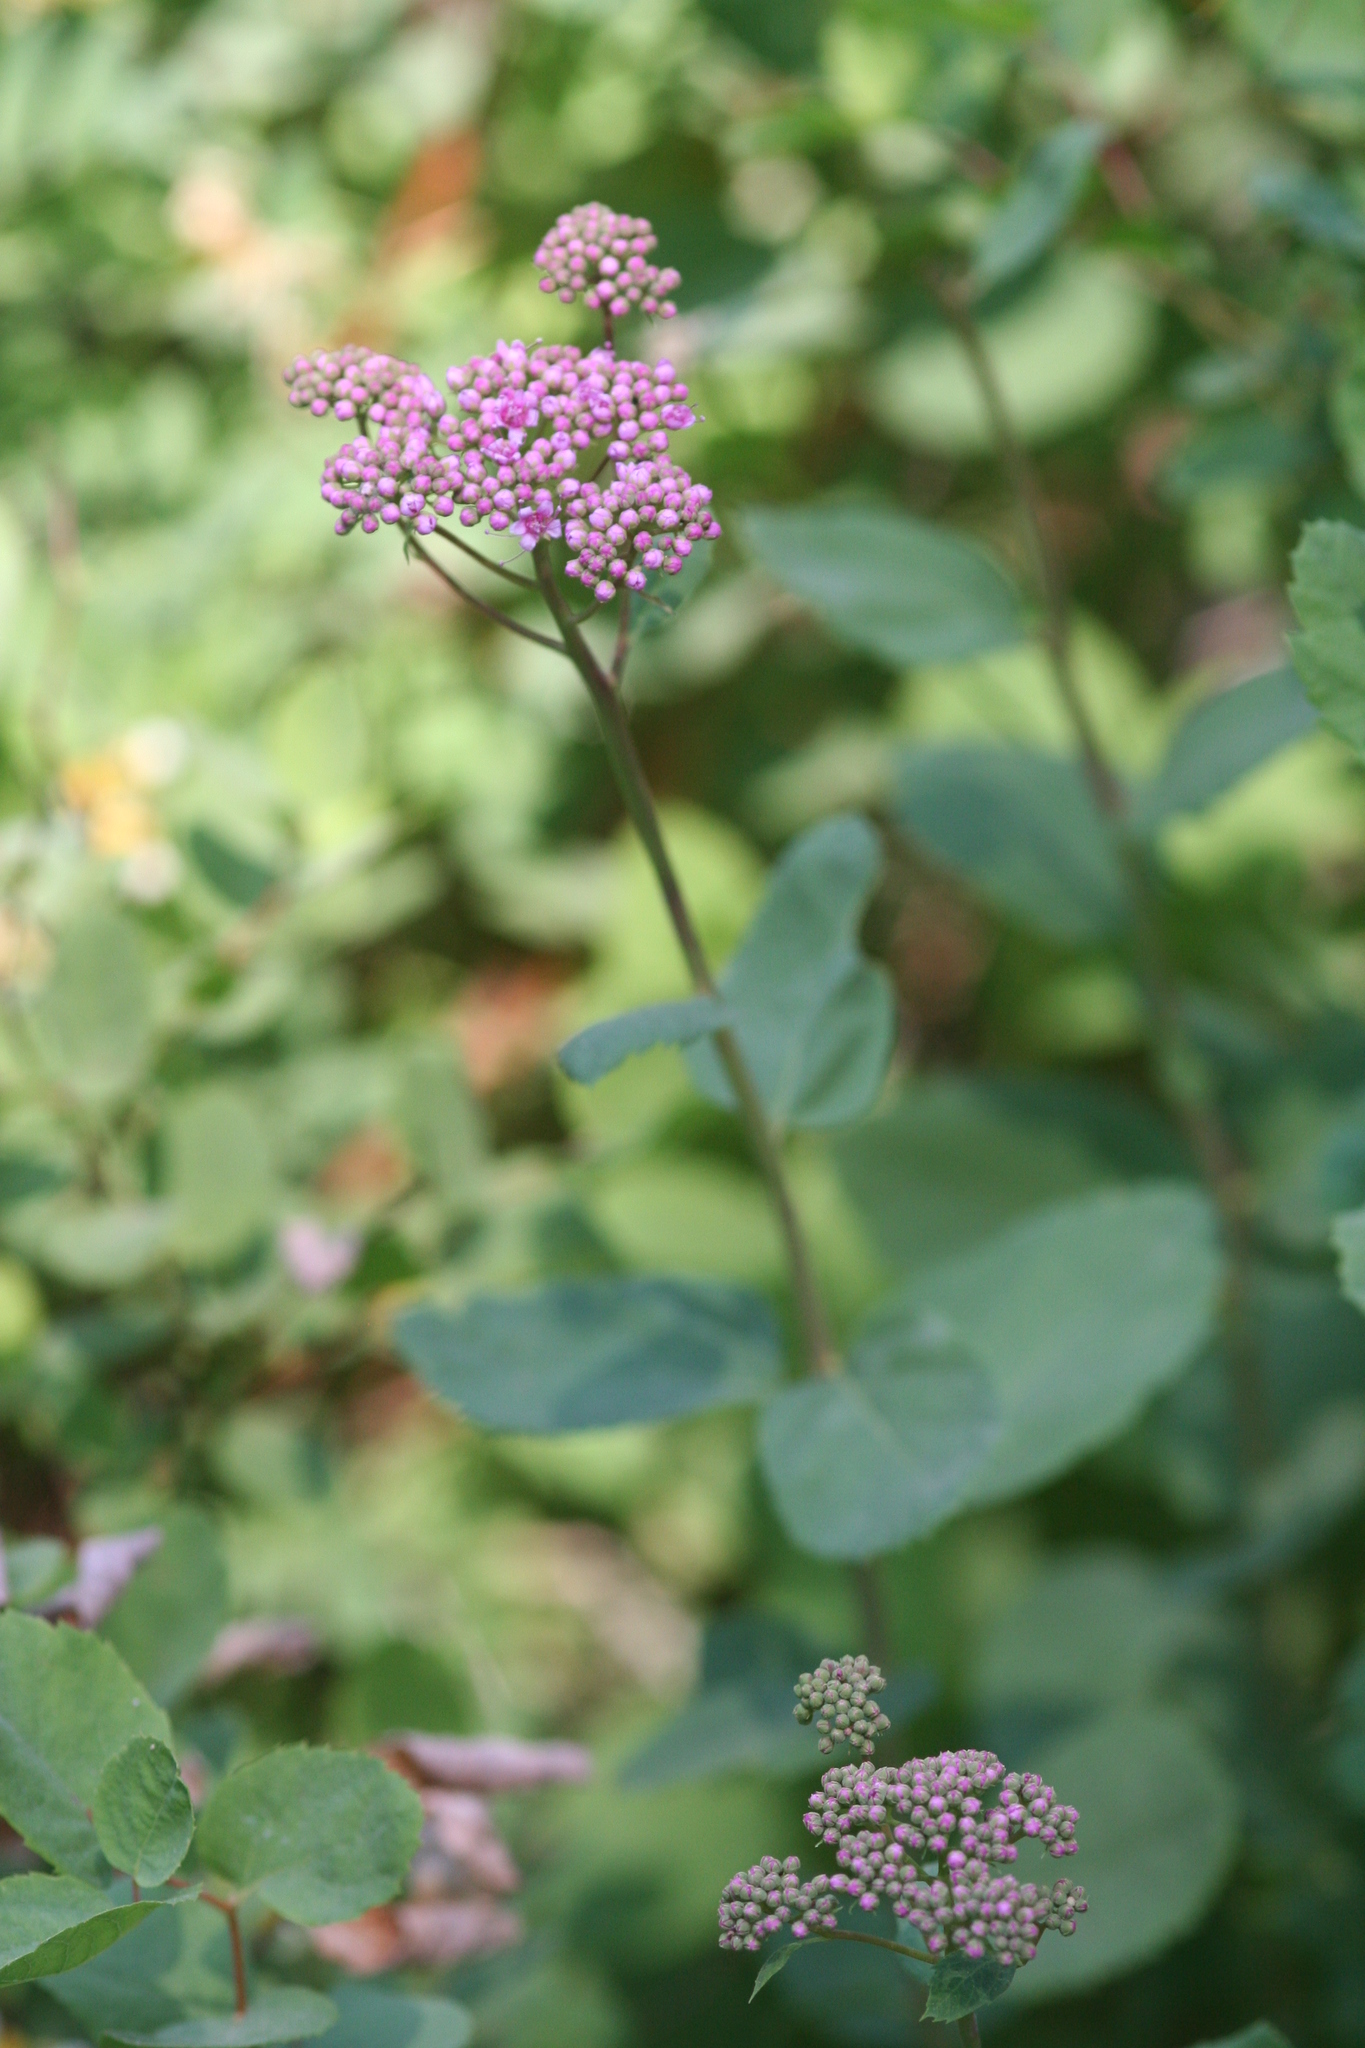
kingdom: Plantae
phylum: Tracheophyta
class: Magnoliopsida
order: Rosales
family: Rosaceae
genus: Spiraea
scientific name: Spiraea splendens
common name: Subalpine meadowsweet
